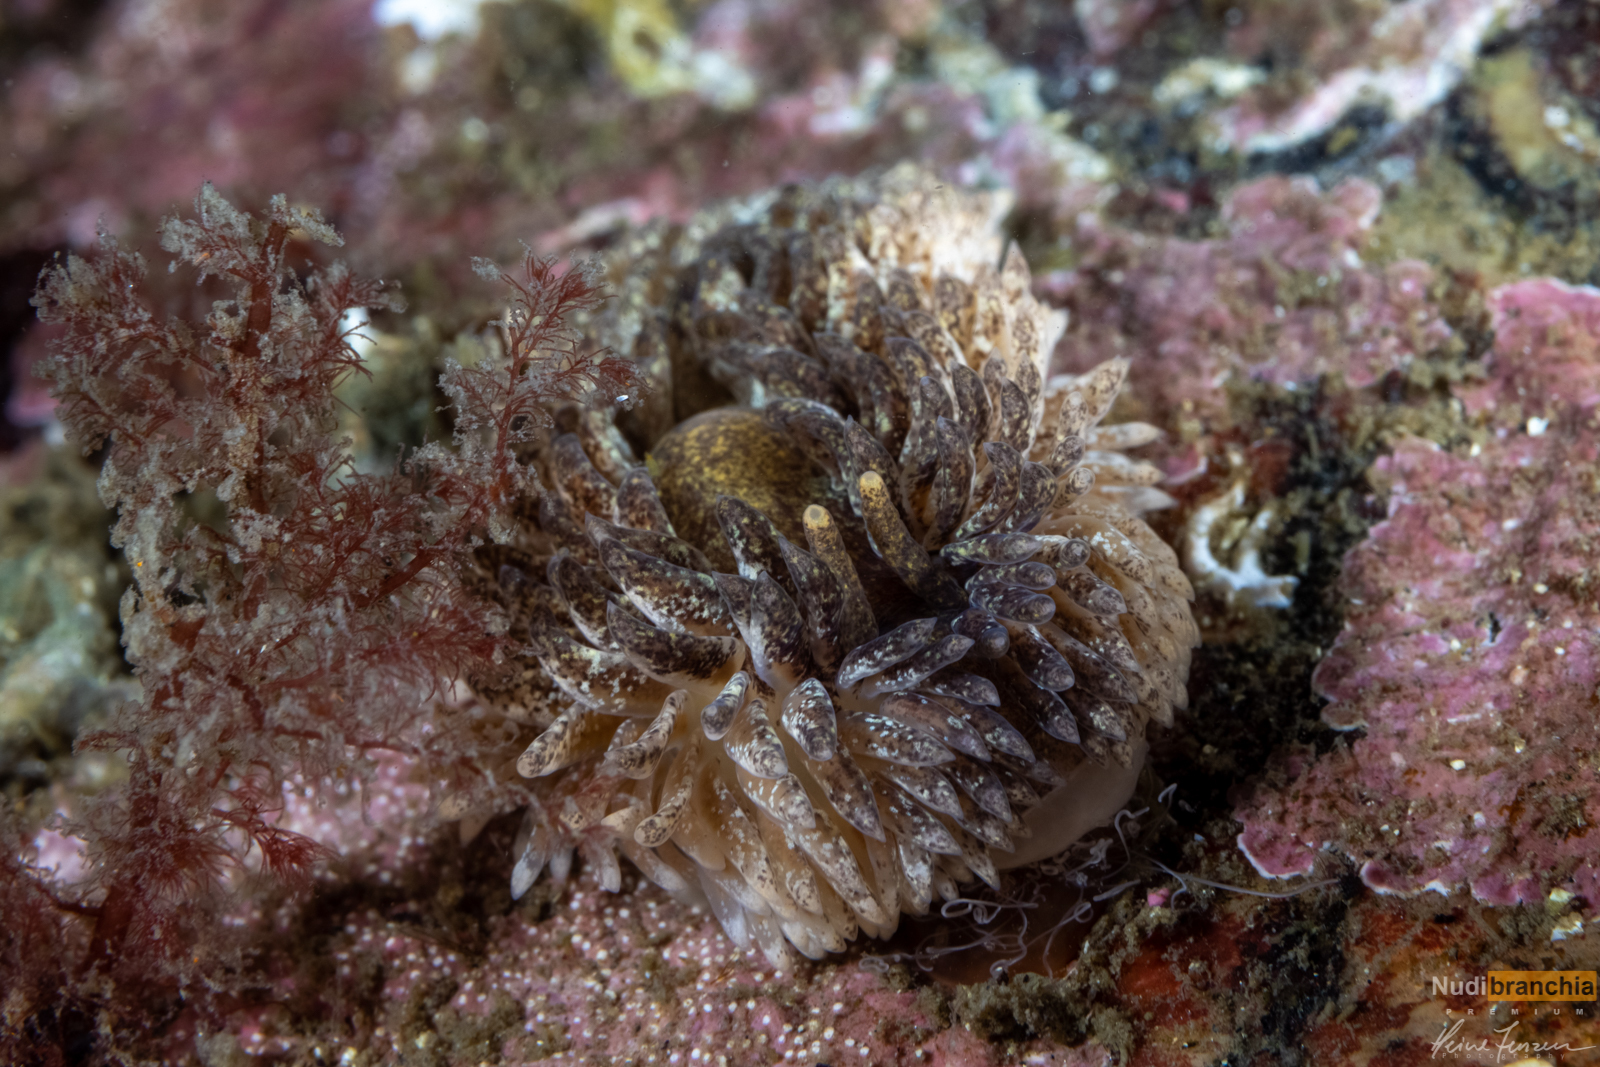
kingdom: Animalia
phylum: Mollusca
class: Gastropoda
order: Nudibranchia
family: Aeolidiidae
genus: Aeolidia
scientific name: Aeolidia papillosa
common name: Common grey sea slug
